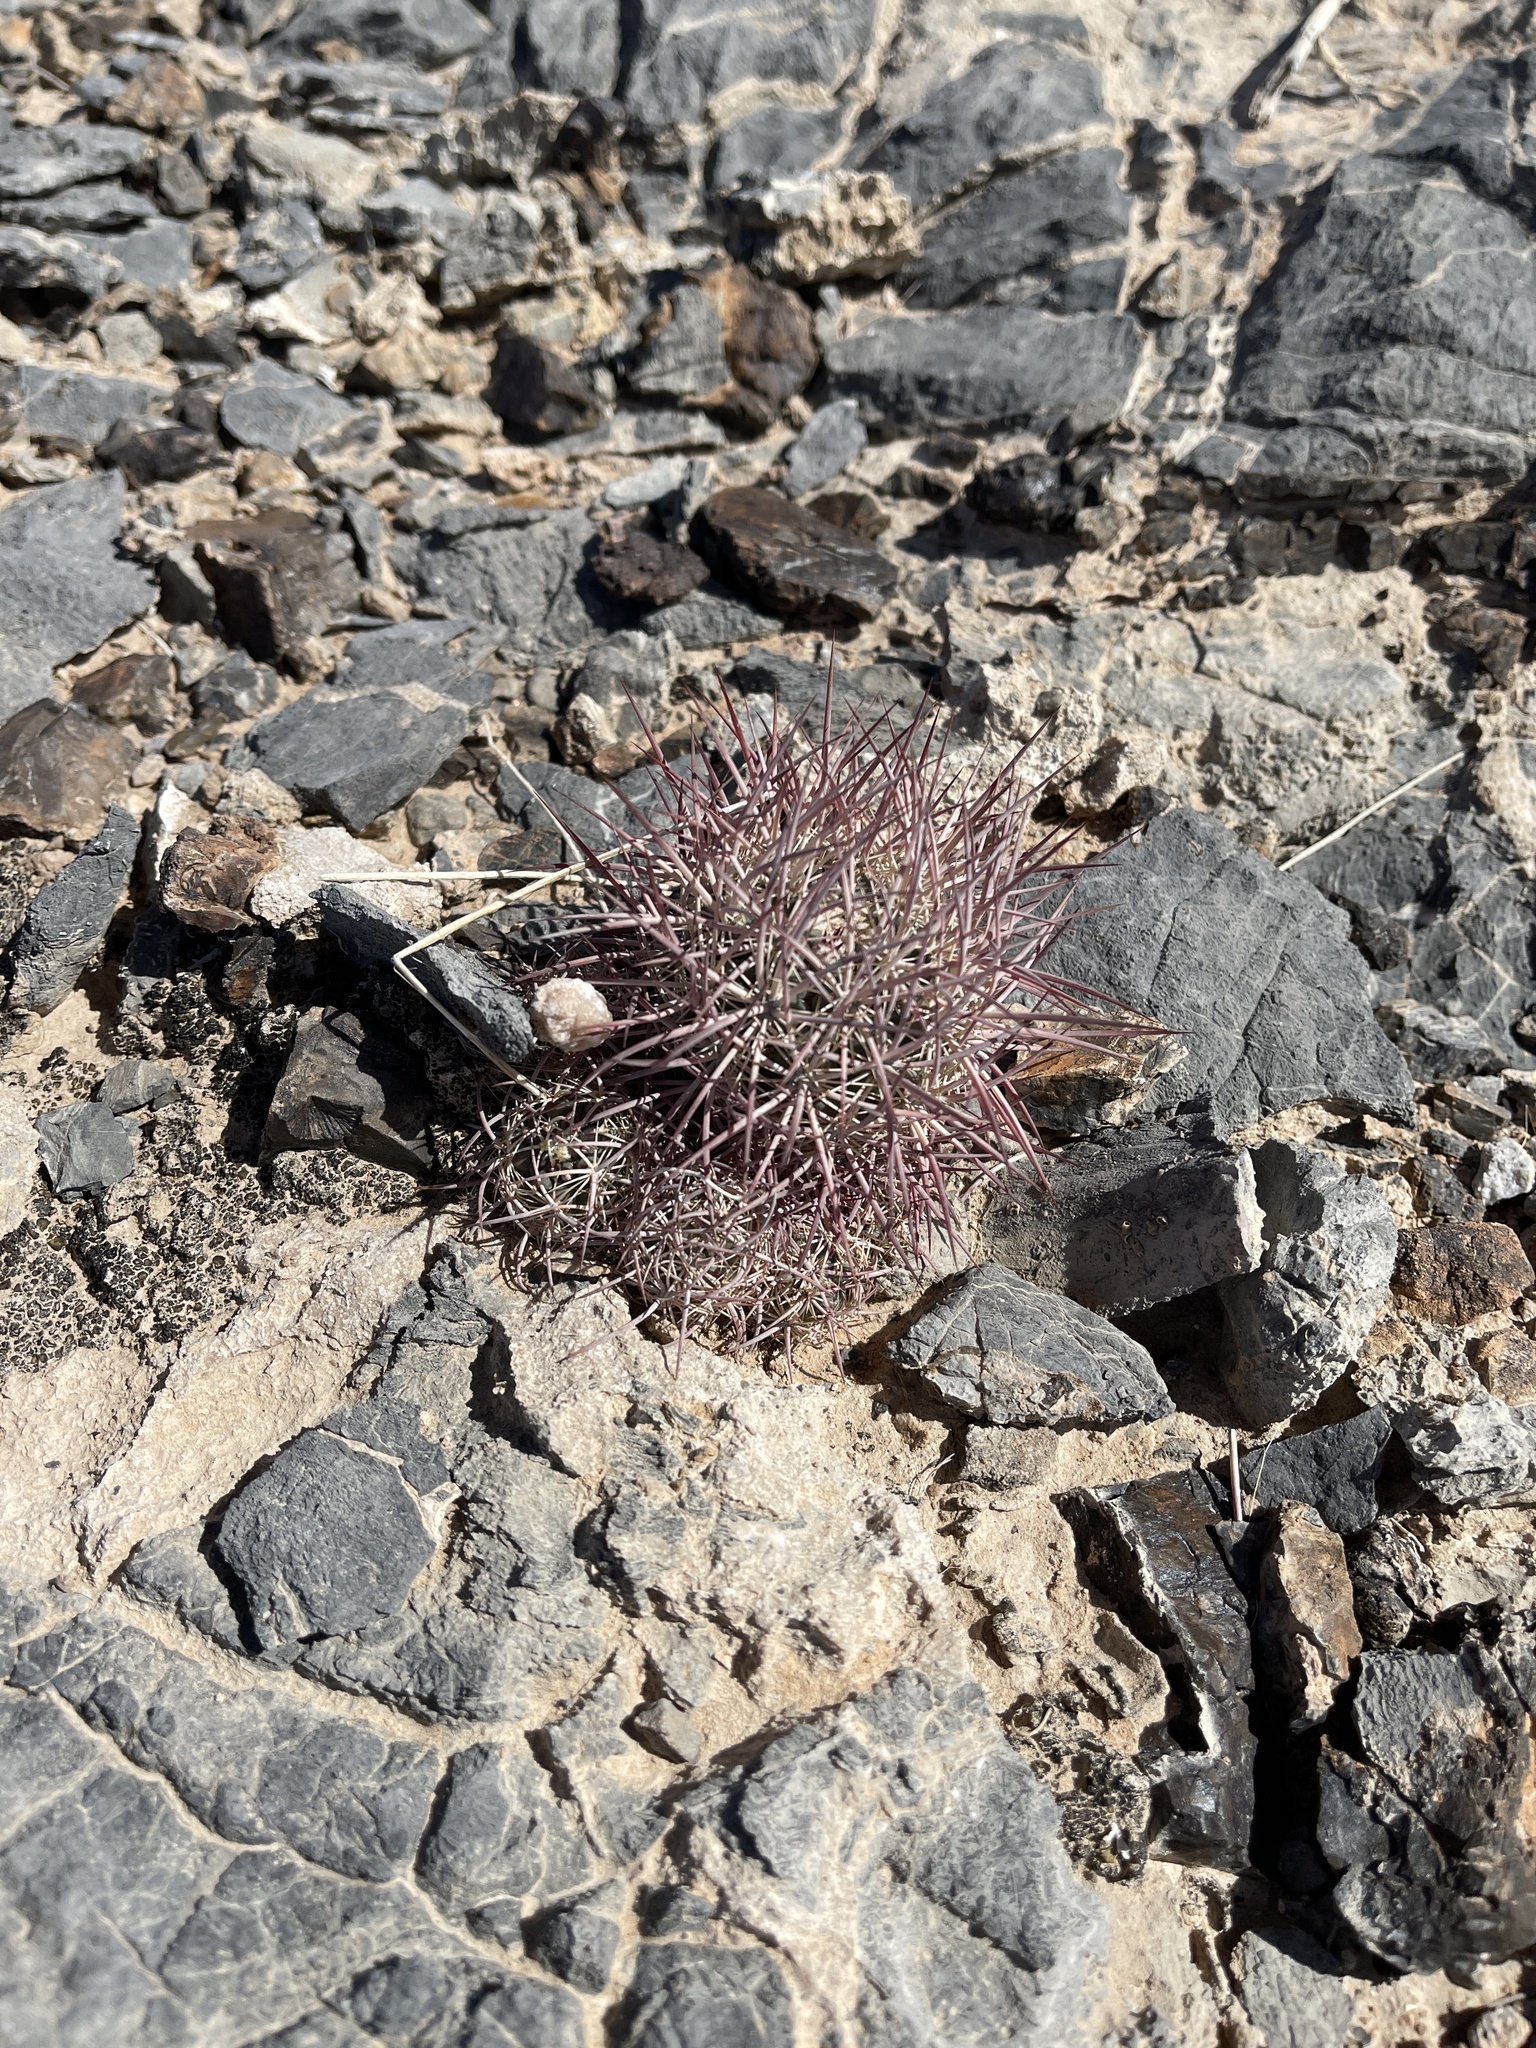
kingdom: Plantae
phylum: Tracheophyta
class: Magnoliopsida
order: Caryophyllales
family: Cactaceae
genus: Sclerocactus
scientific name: Sclerocactus johnsonii
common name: Eight-spine fishhook cactus
